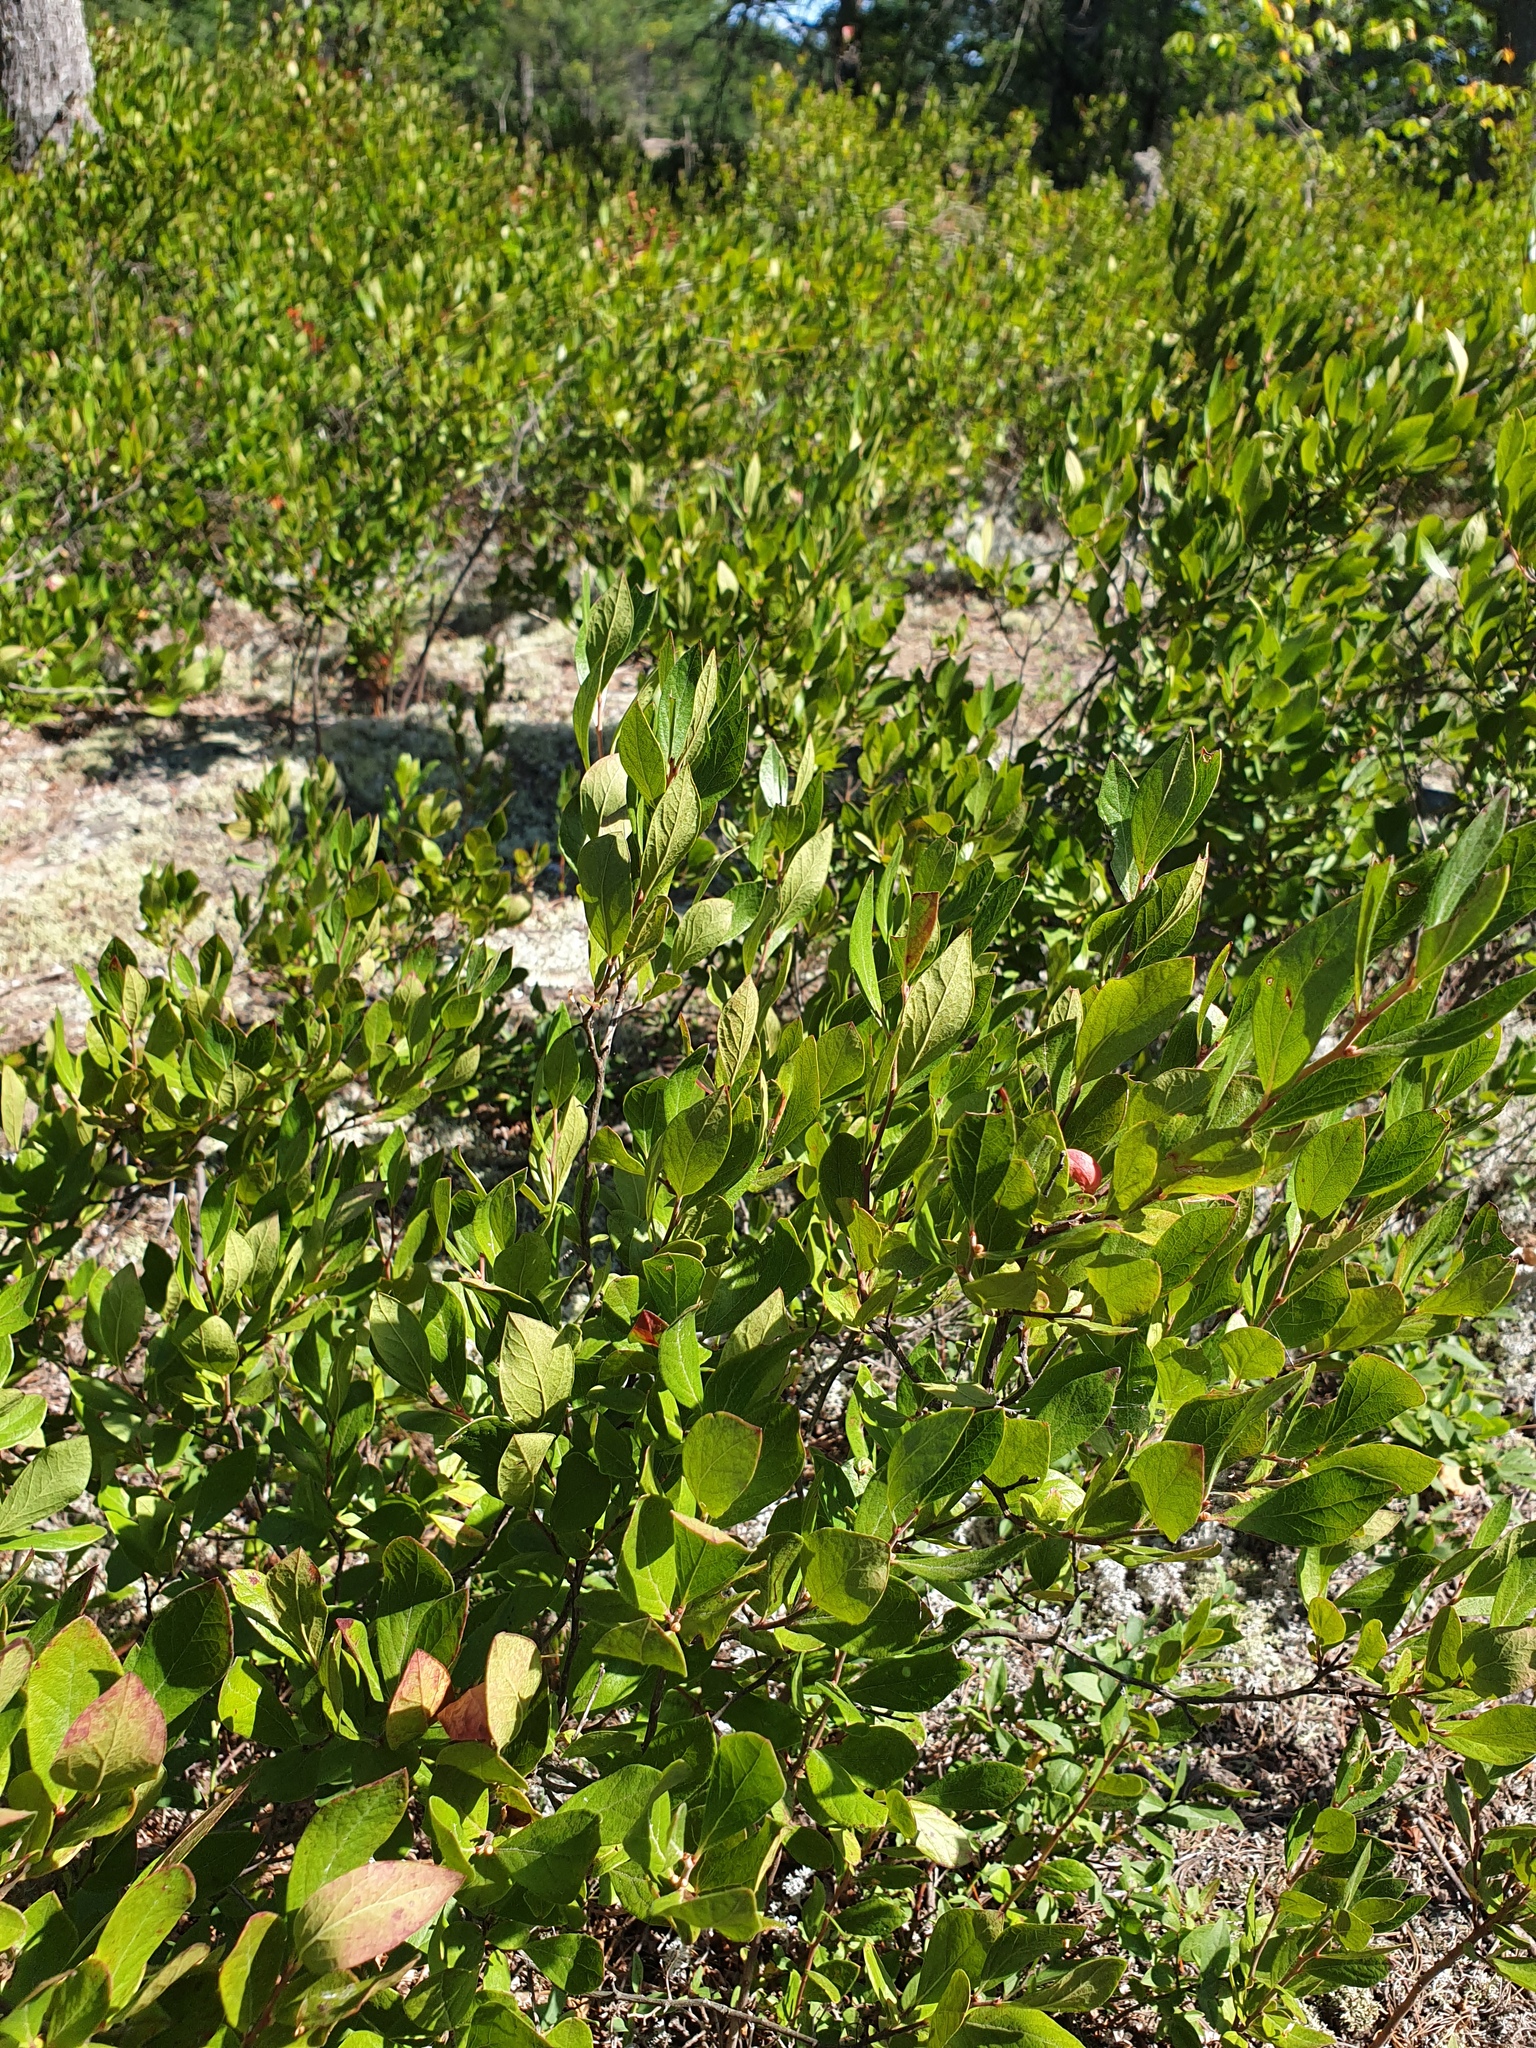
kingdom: Plantae
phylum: Tracheophyta
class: Magnoliopsida
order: Ericales
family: Ericaceae
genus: Gaylussacia
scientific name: Gaylussacia baccata
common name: Black huckleberry
